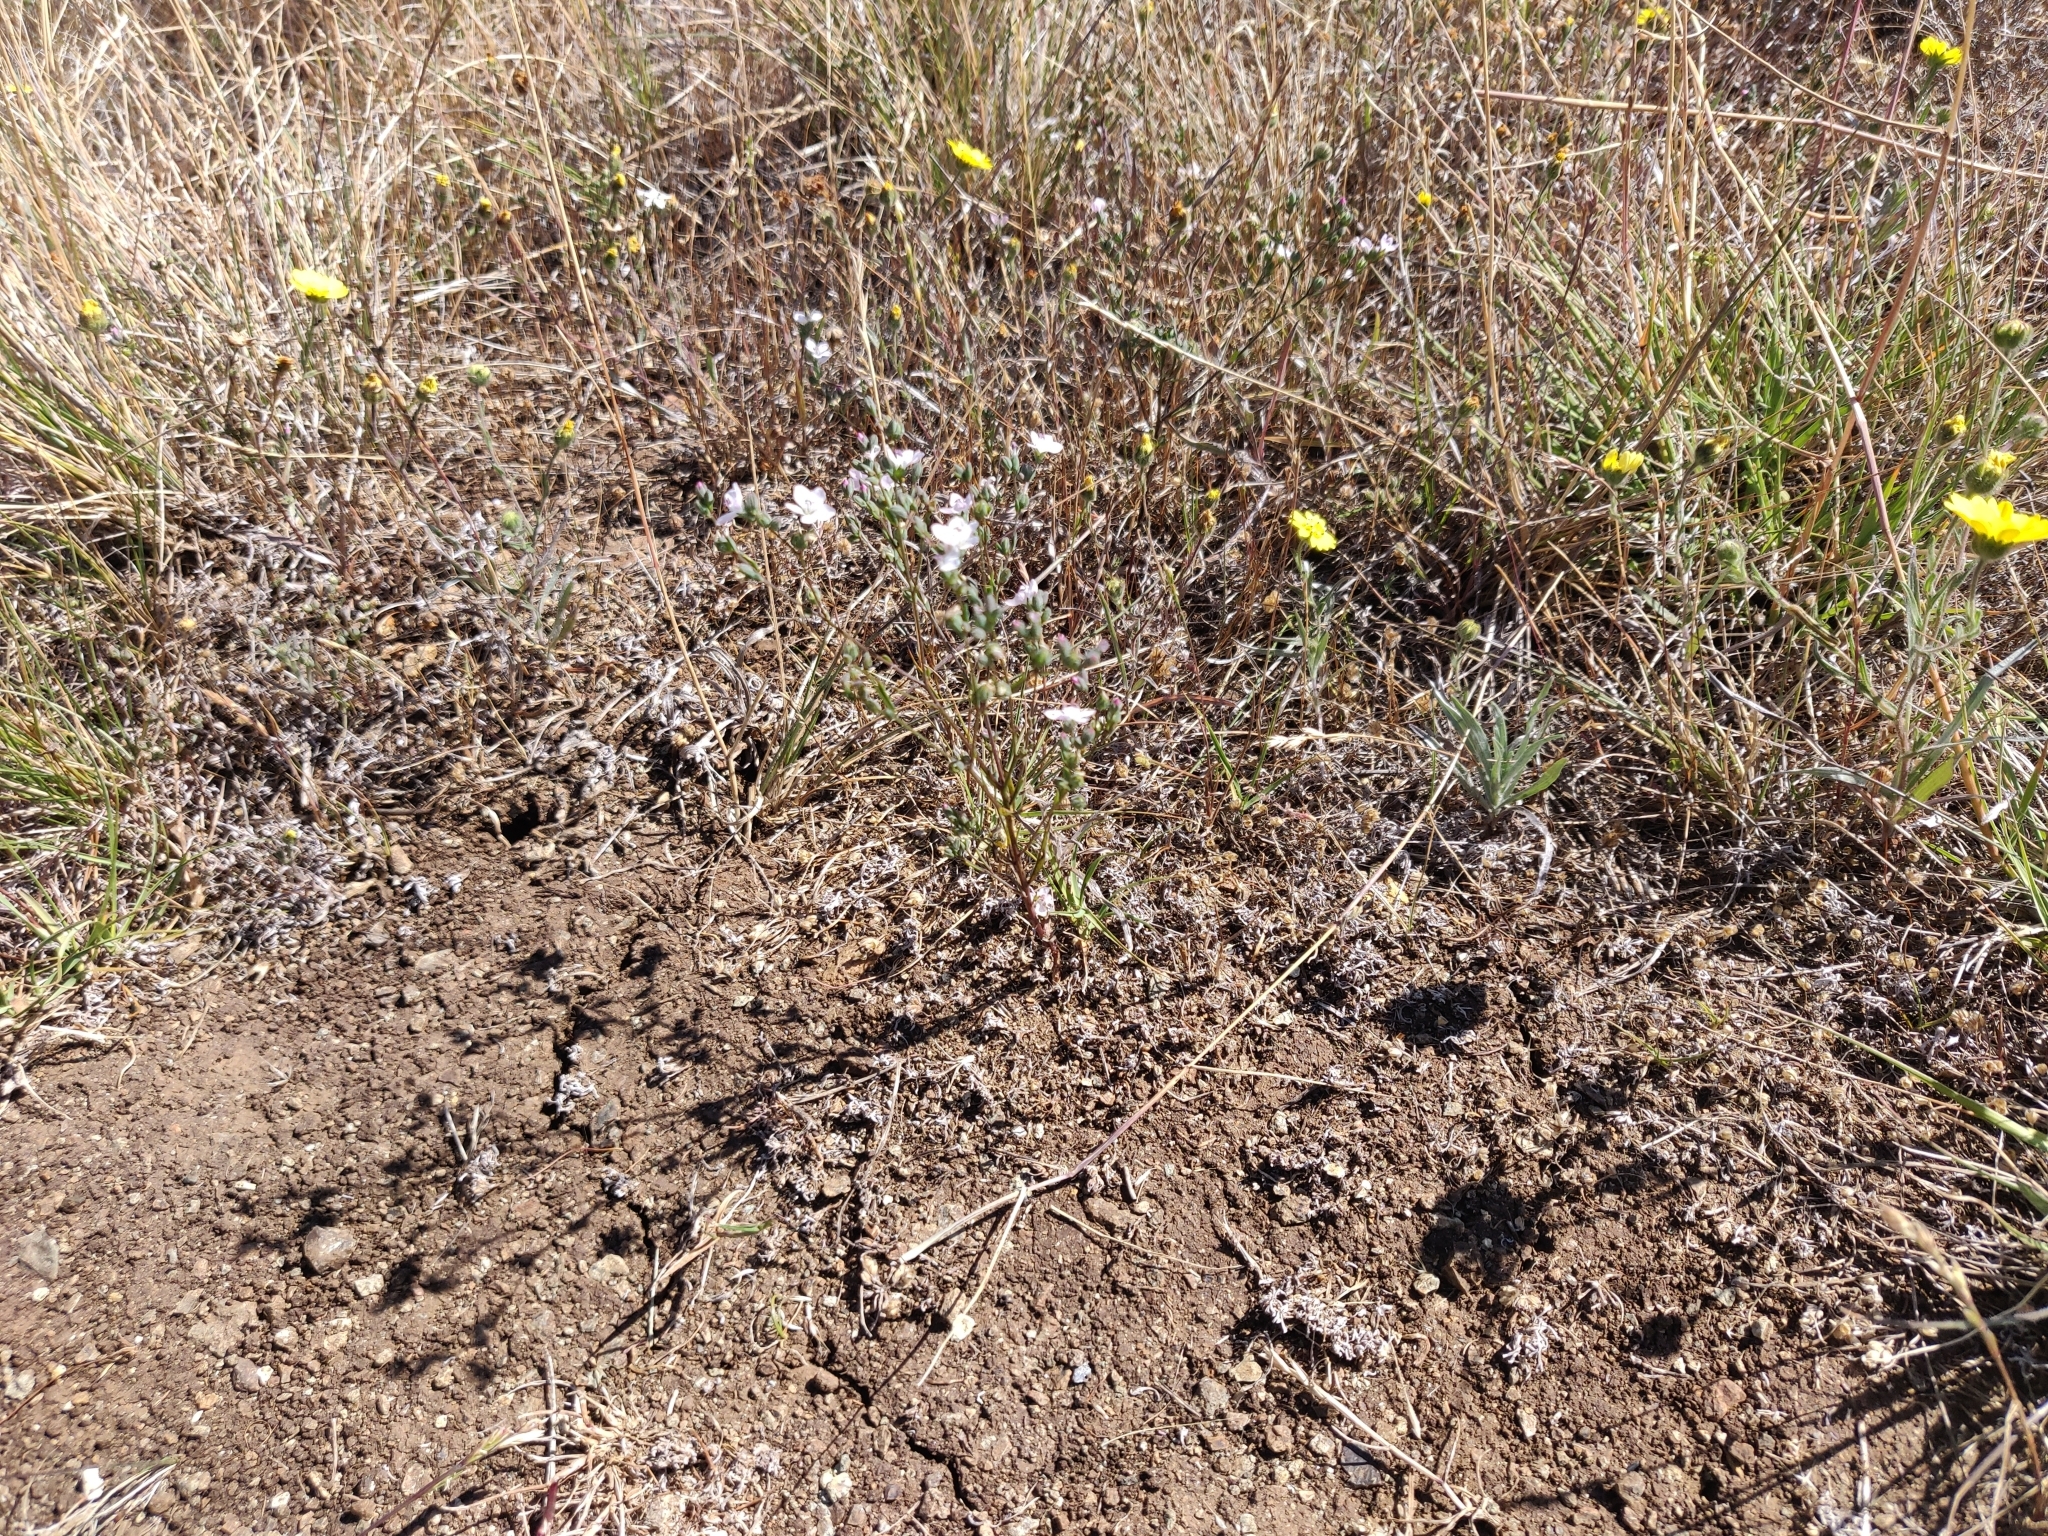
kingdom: Plantae
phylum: Tracheophyta
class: Magnoliopsida
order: Malpighiales
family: Linaceae
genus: Hesperolinon
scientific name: Hesperolinon congestum
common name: Marin dwarf-flax
